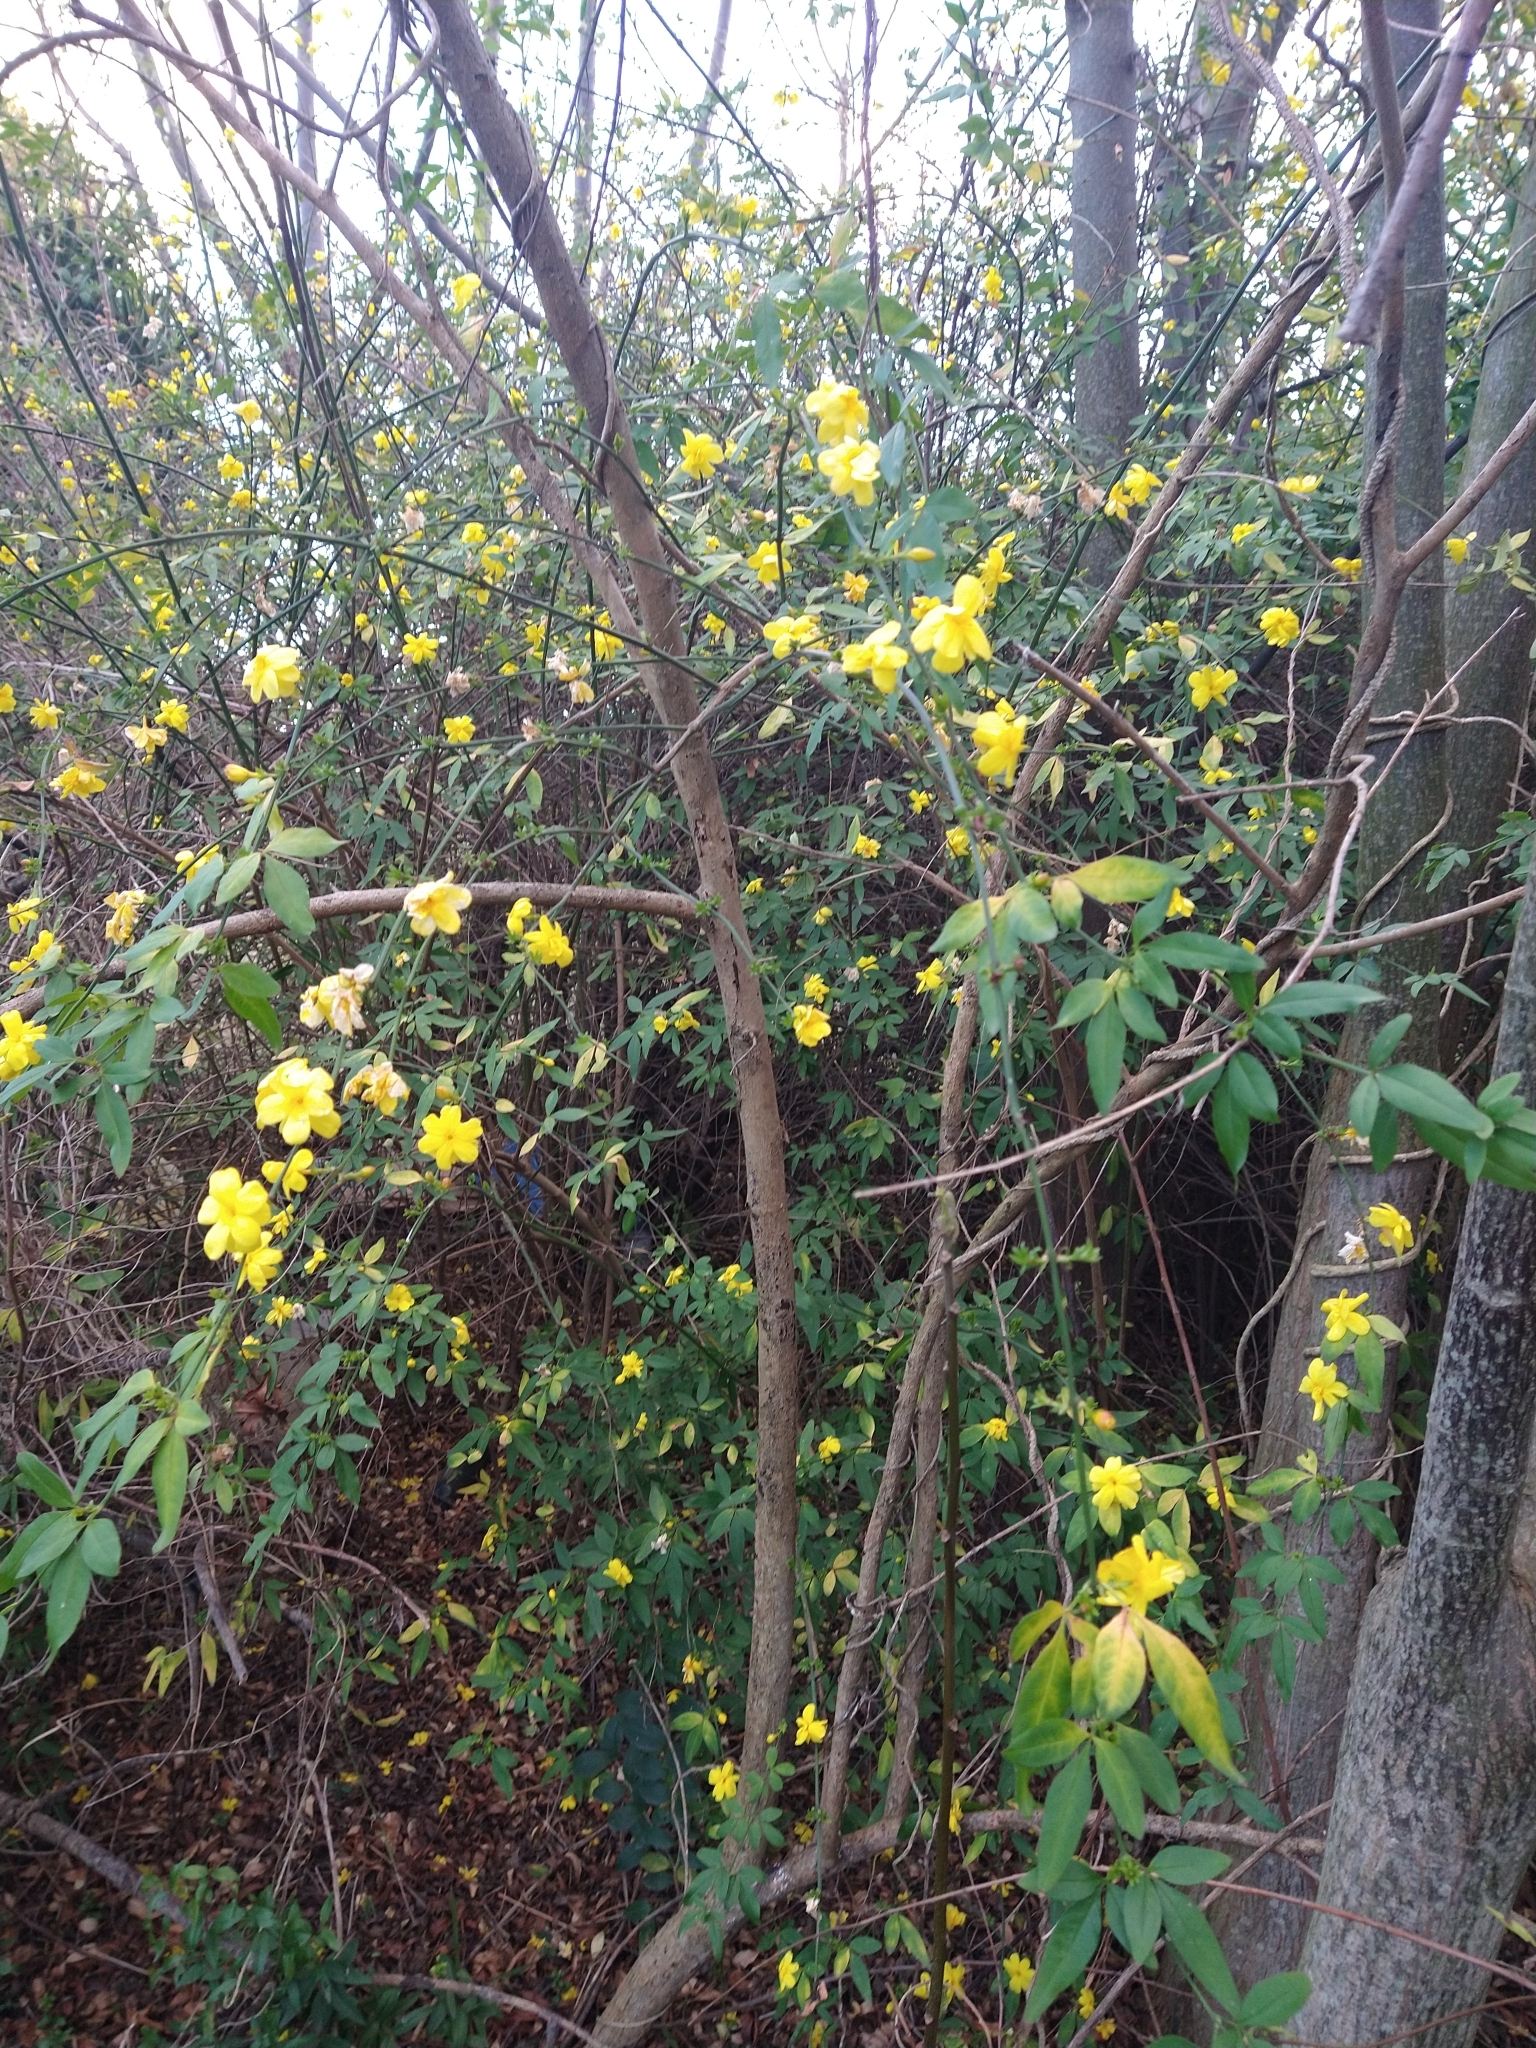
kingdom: Plantae
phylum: Tracheophyta
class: Magnoliopsida
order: Lamiales
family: Oleaceae
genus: Jasminum
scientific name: Jasminum mesnyi
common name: Japanese jasmine
